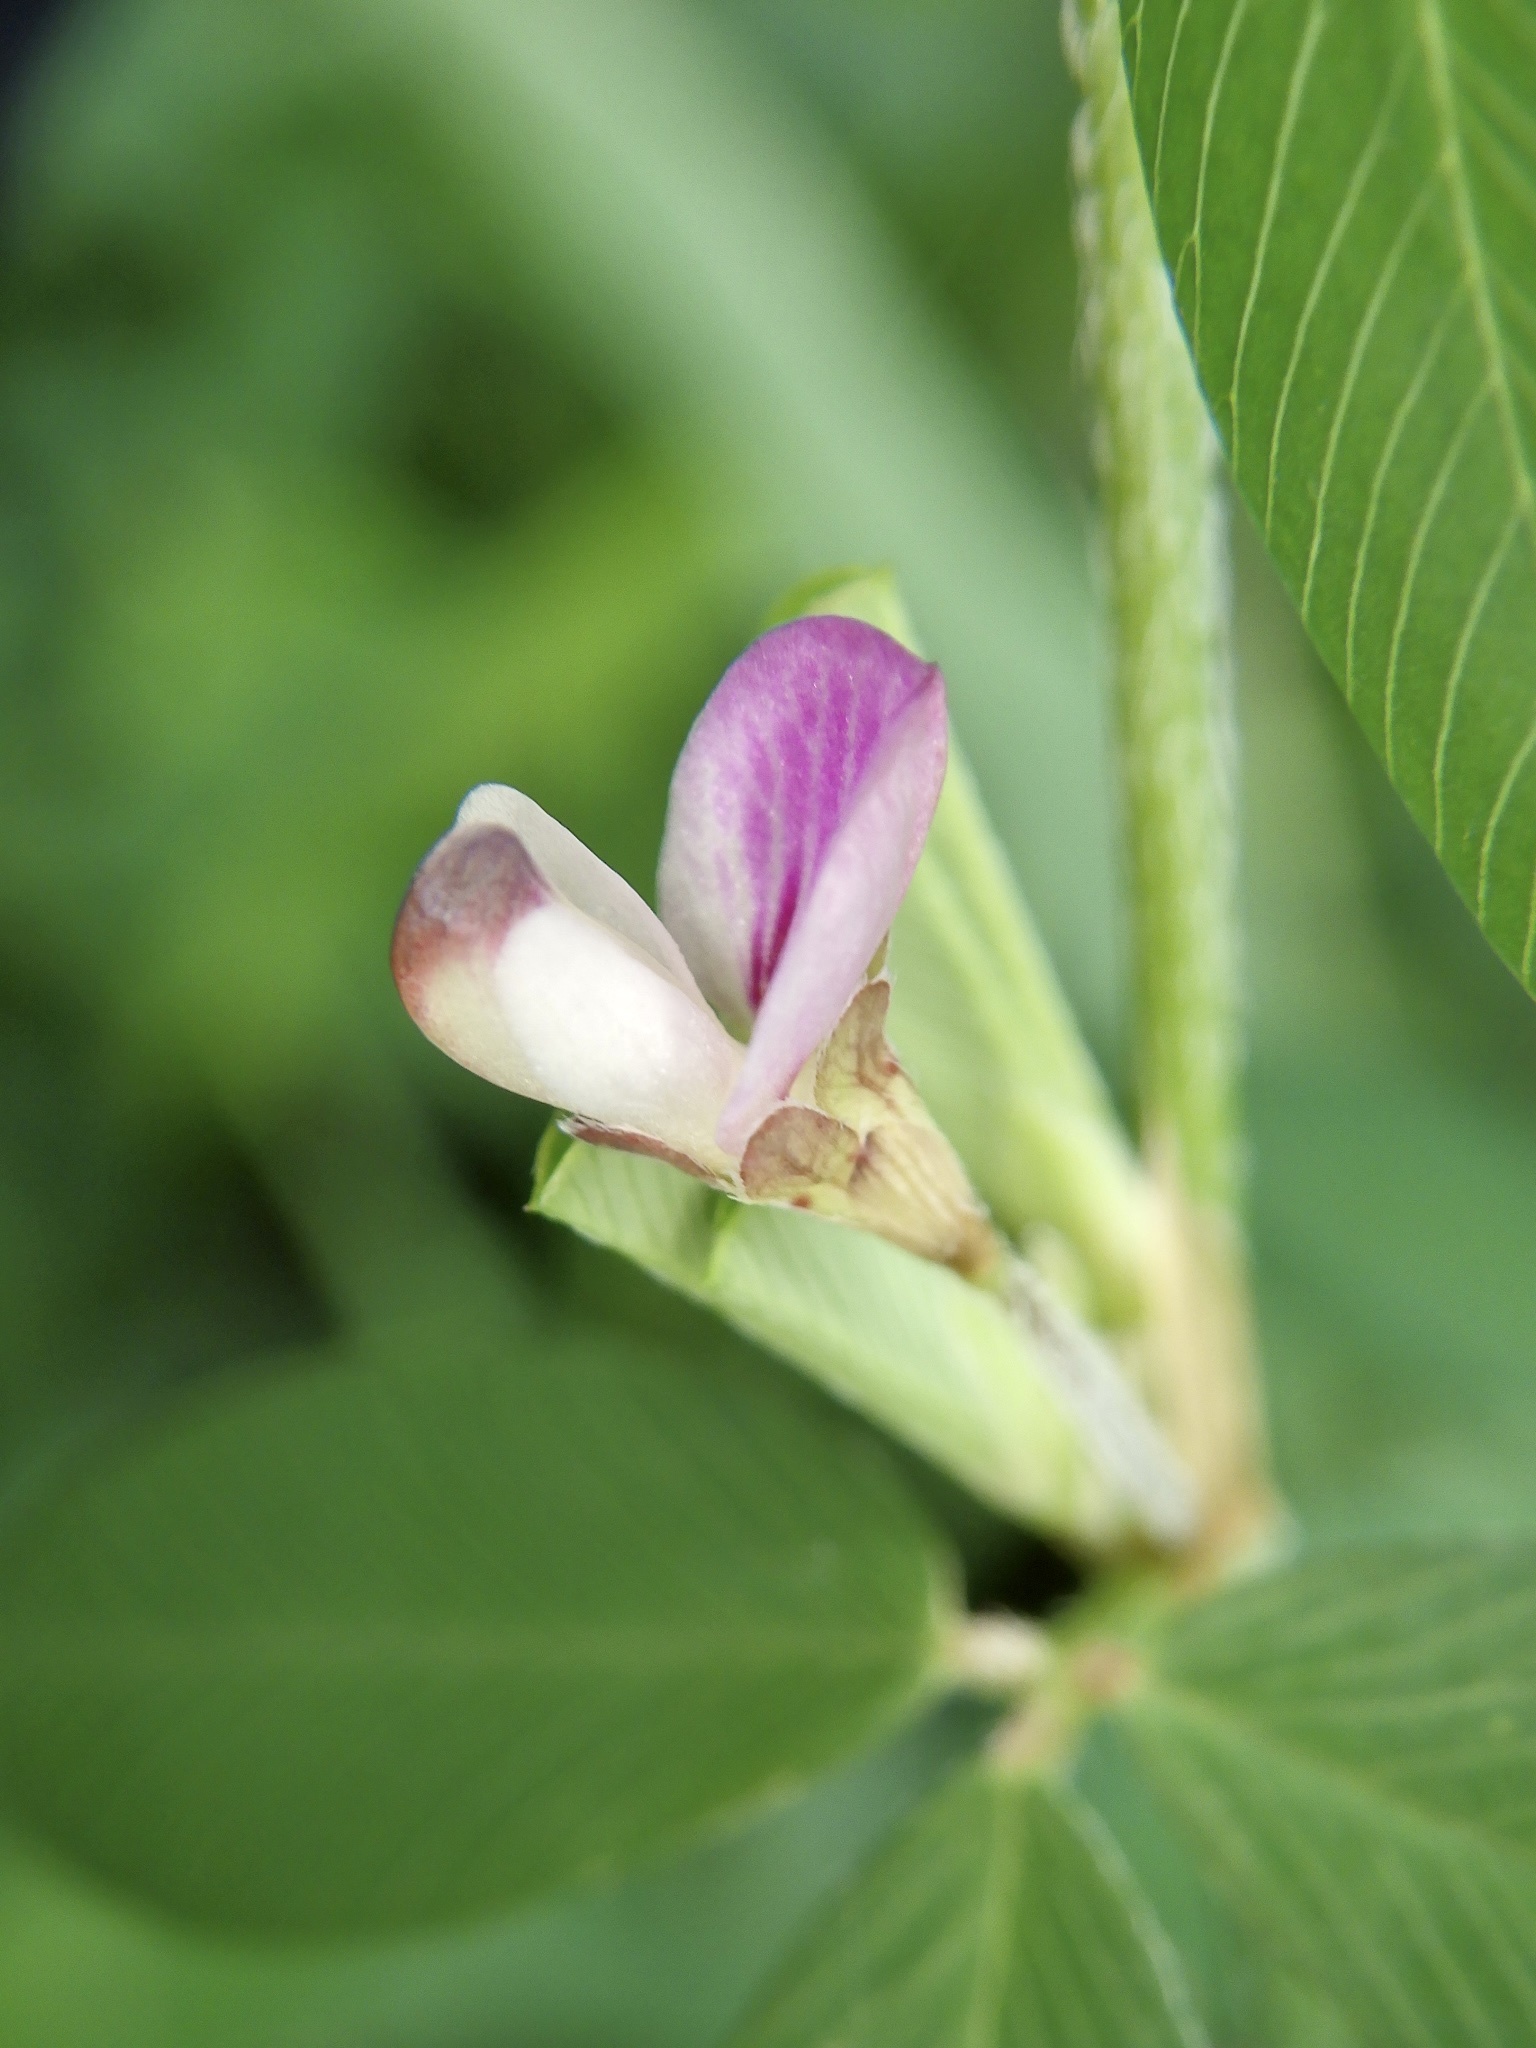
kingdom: Plantae
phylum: Tracheophyta
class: Magnoliopsida
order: Fabales
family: Fabaceae
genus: Kummerowia
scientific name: Kummerowia striata
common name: Japanese clover
